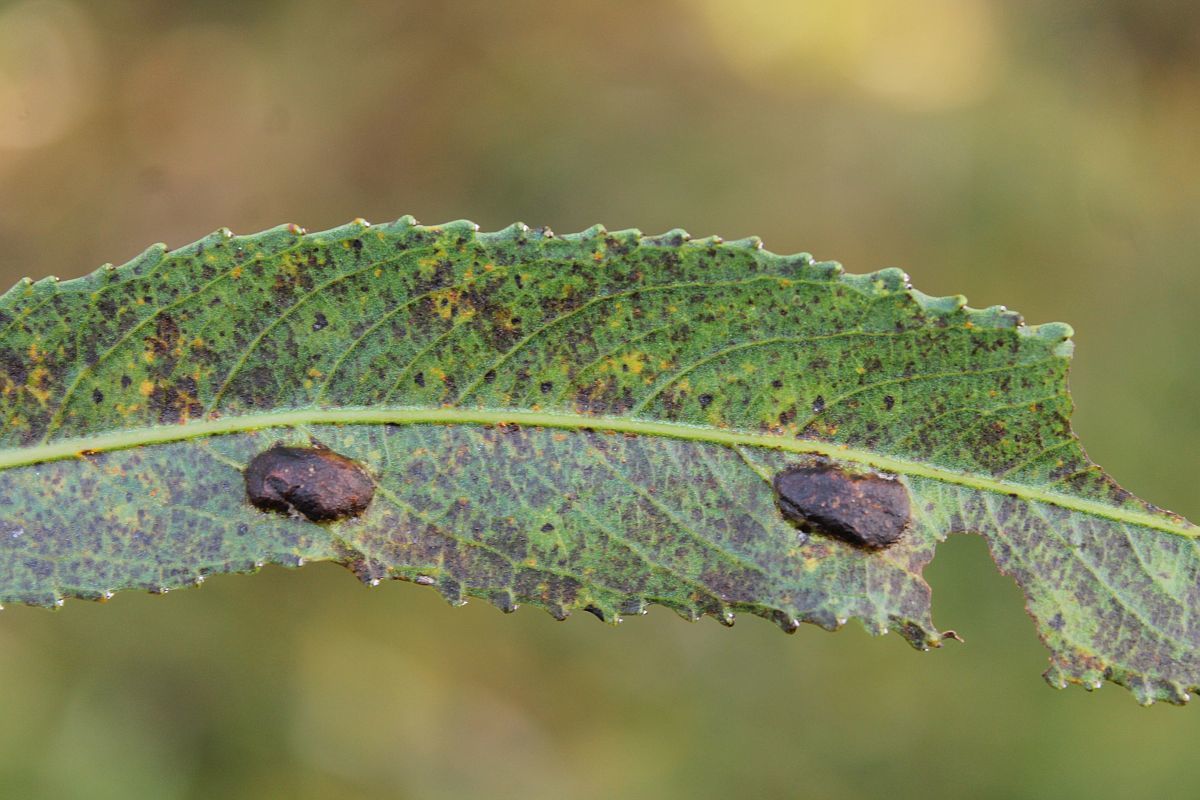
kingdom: Animalia
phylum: Arthropoda
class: Insecta
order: Hymenoptera
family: Tenthredinidae
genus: Pontania
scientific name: Pontania proxima
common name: Common sawfly
